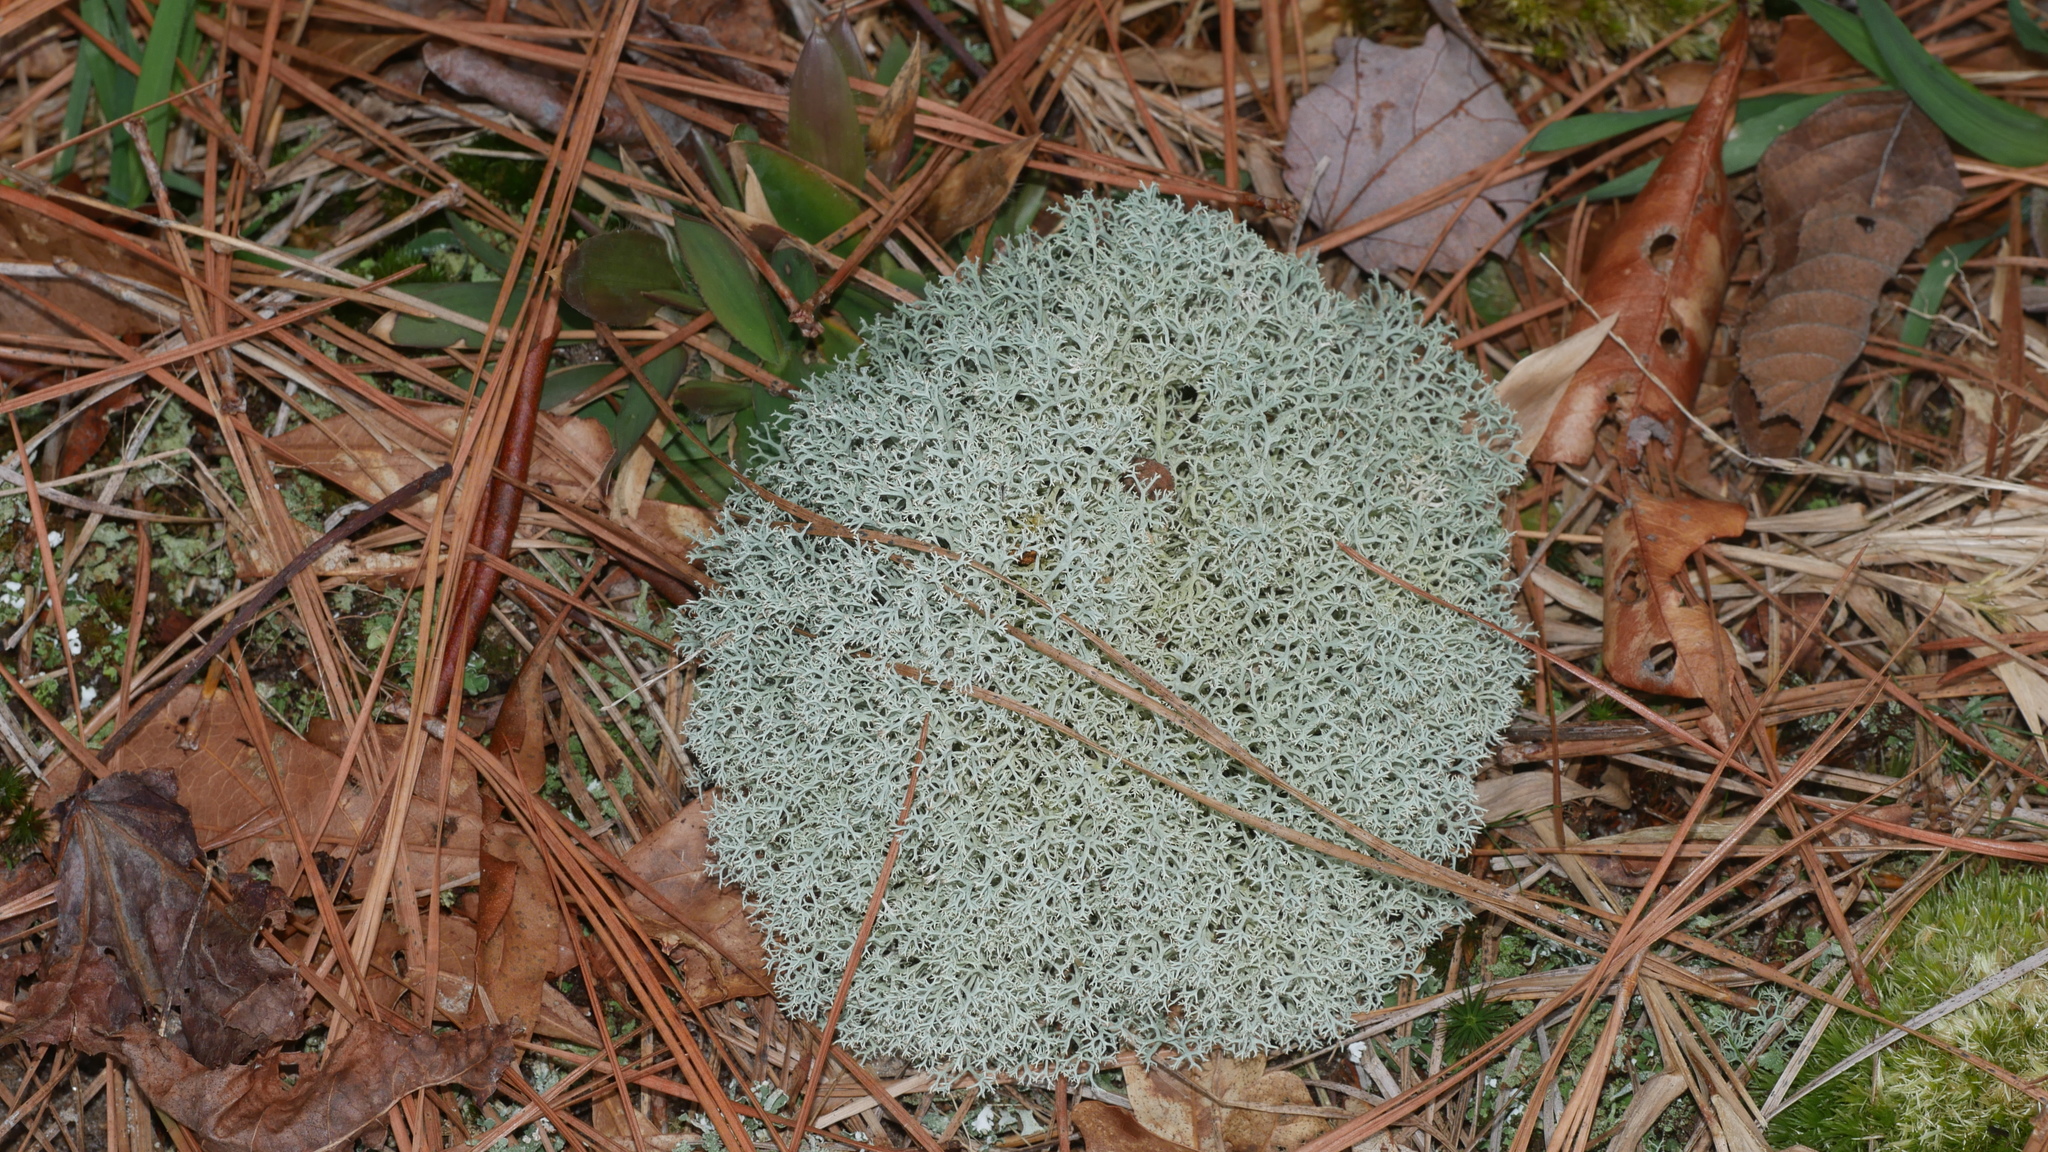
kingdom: Fungi
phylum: Ascomycota
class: Lecanoromycetes
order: Lecanorales
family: Cladoniaceae
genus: Cladonia
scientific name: Cladonia subtenuis
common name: Dixie reindeer lichen
